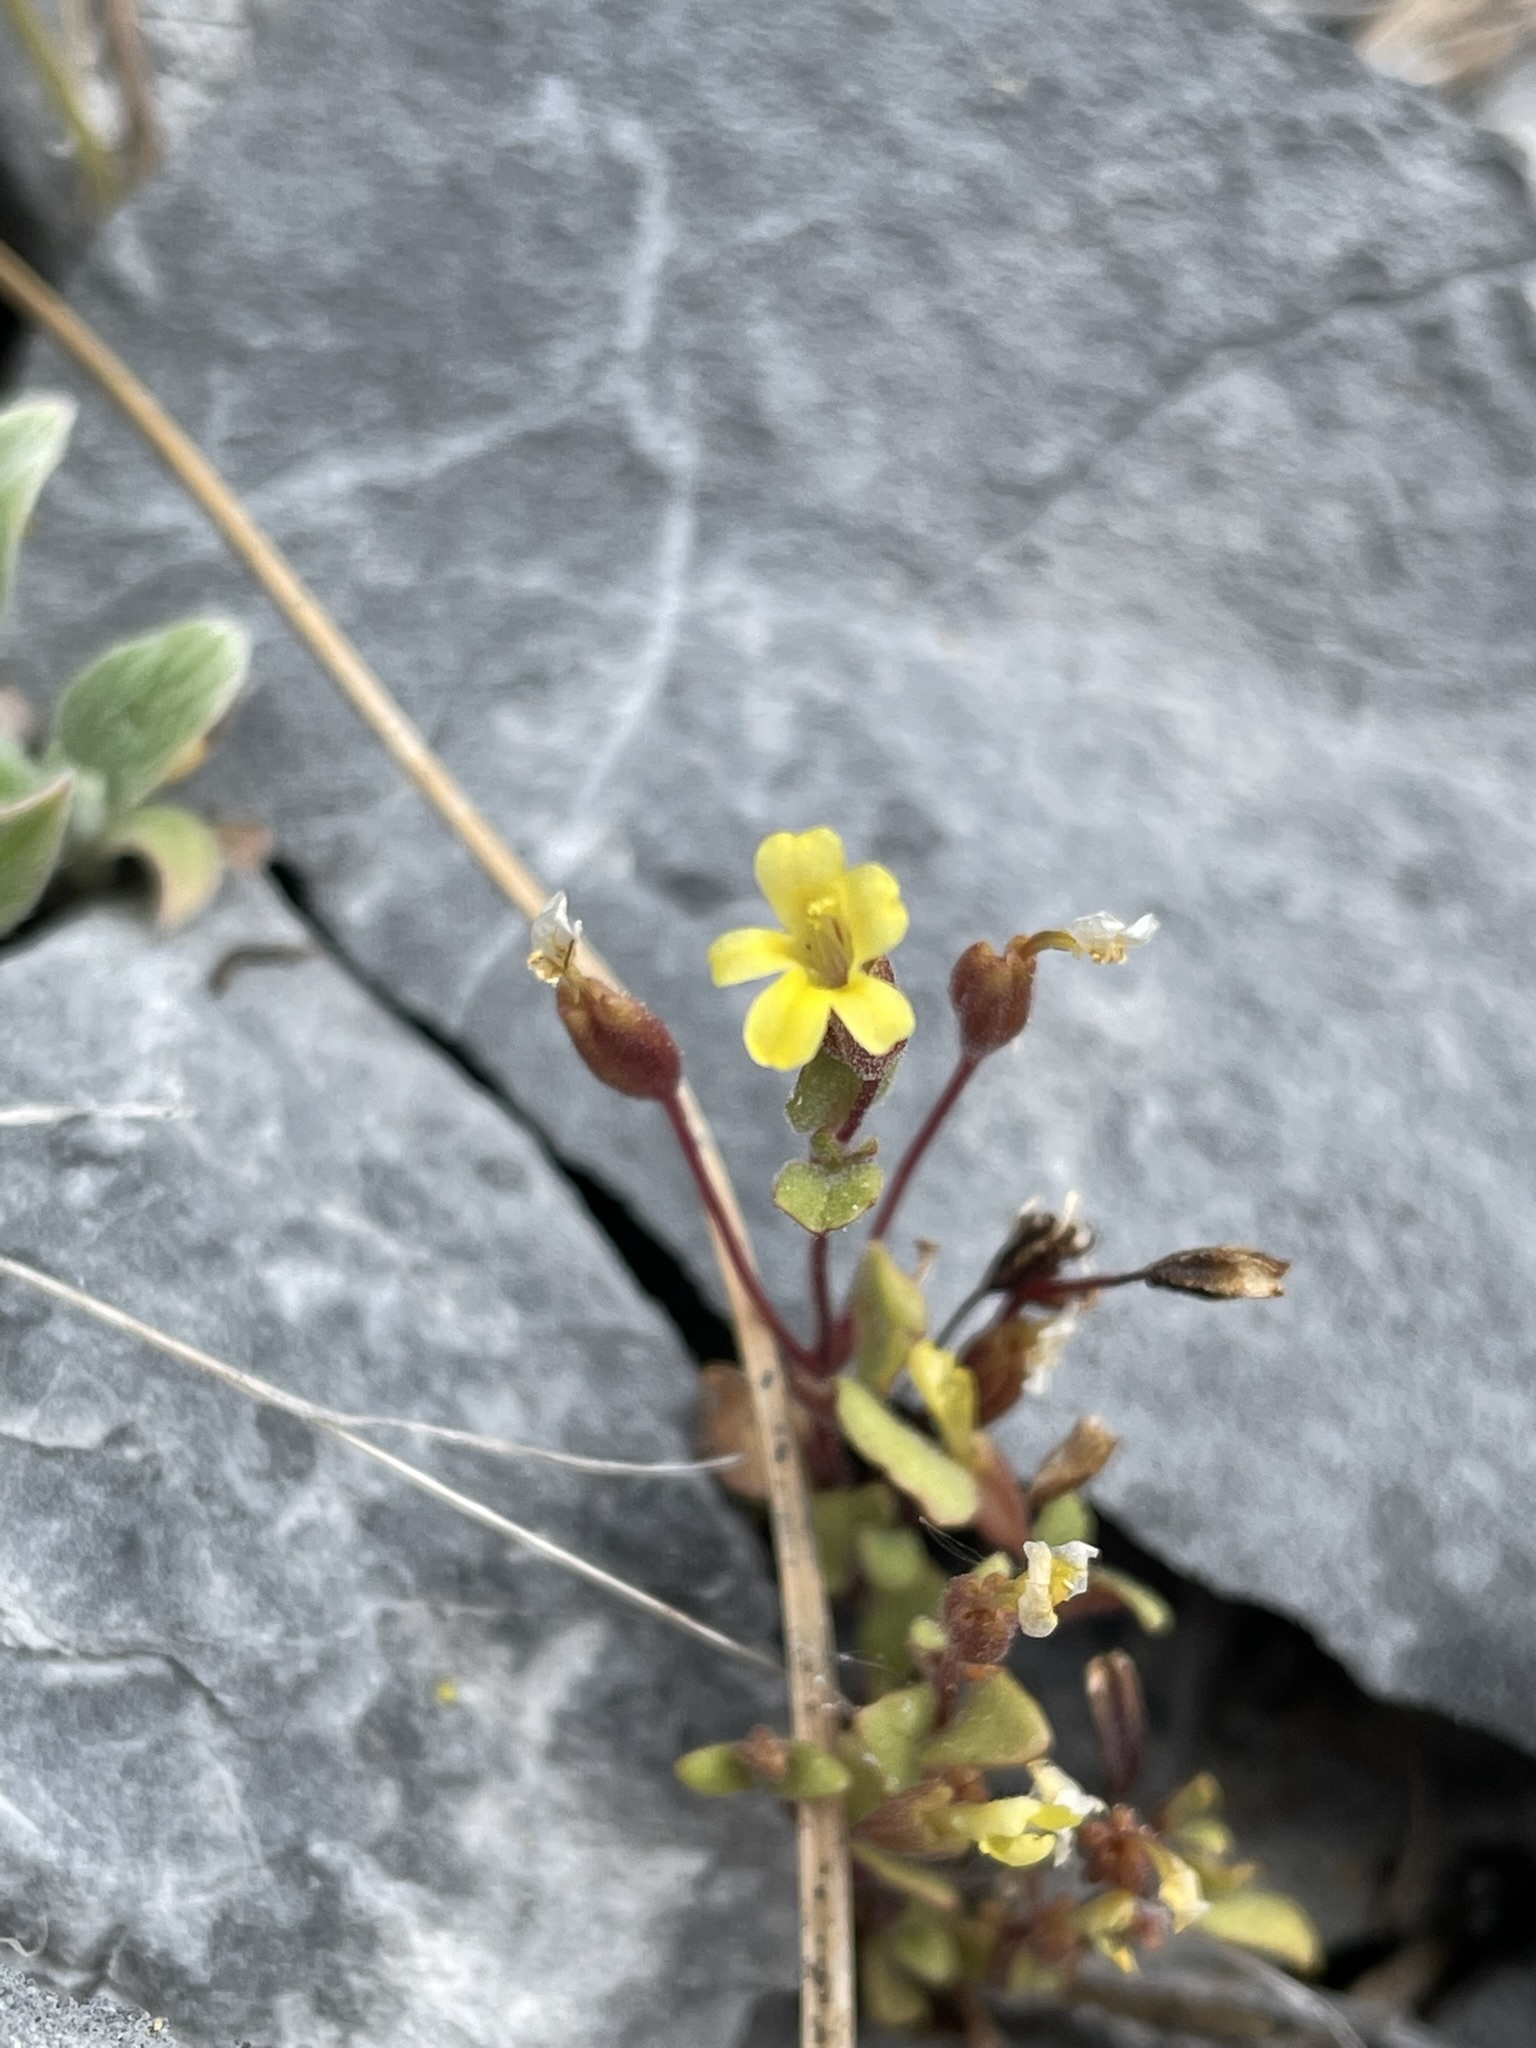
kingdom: Plantae
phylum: Tracheophyta
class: Magnoliopsida
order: Lamiales
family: Phrymaceae
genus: Erythranthe
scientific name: Erythranthe taylorii
